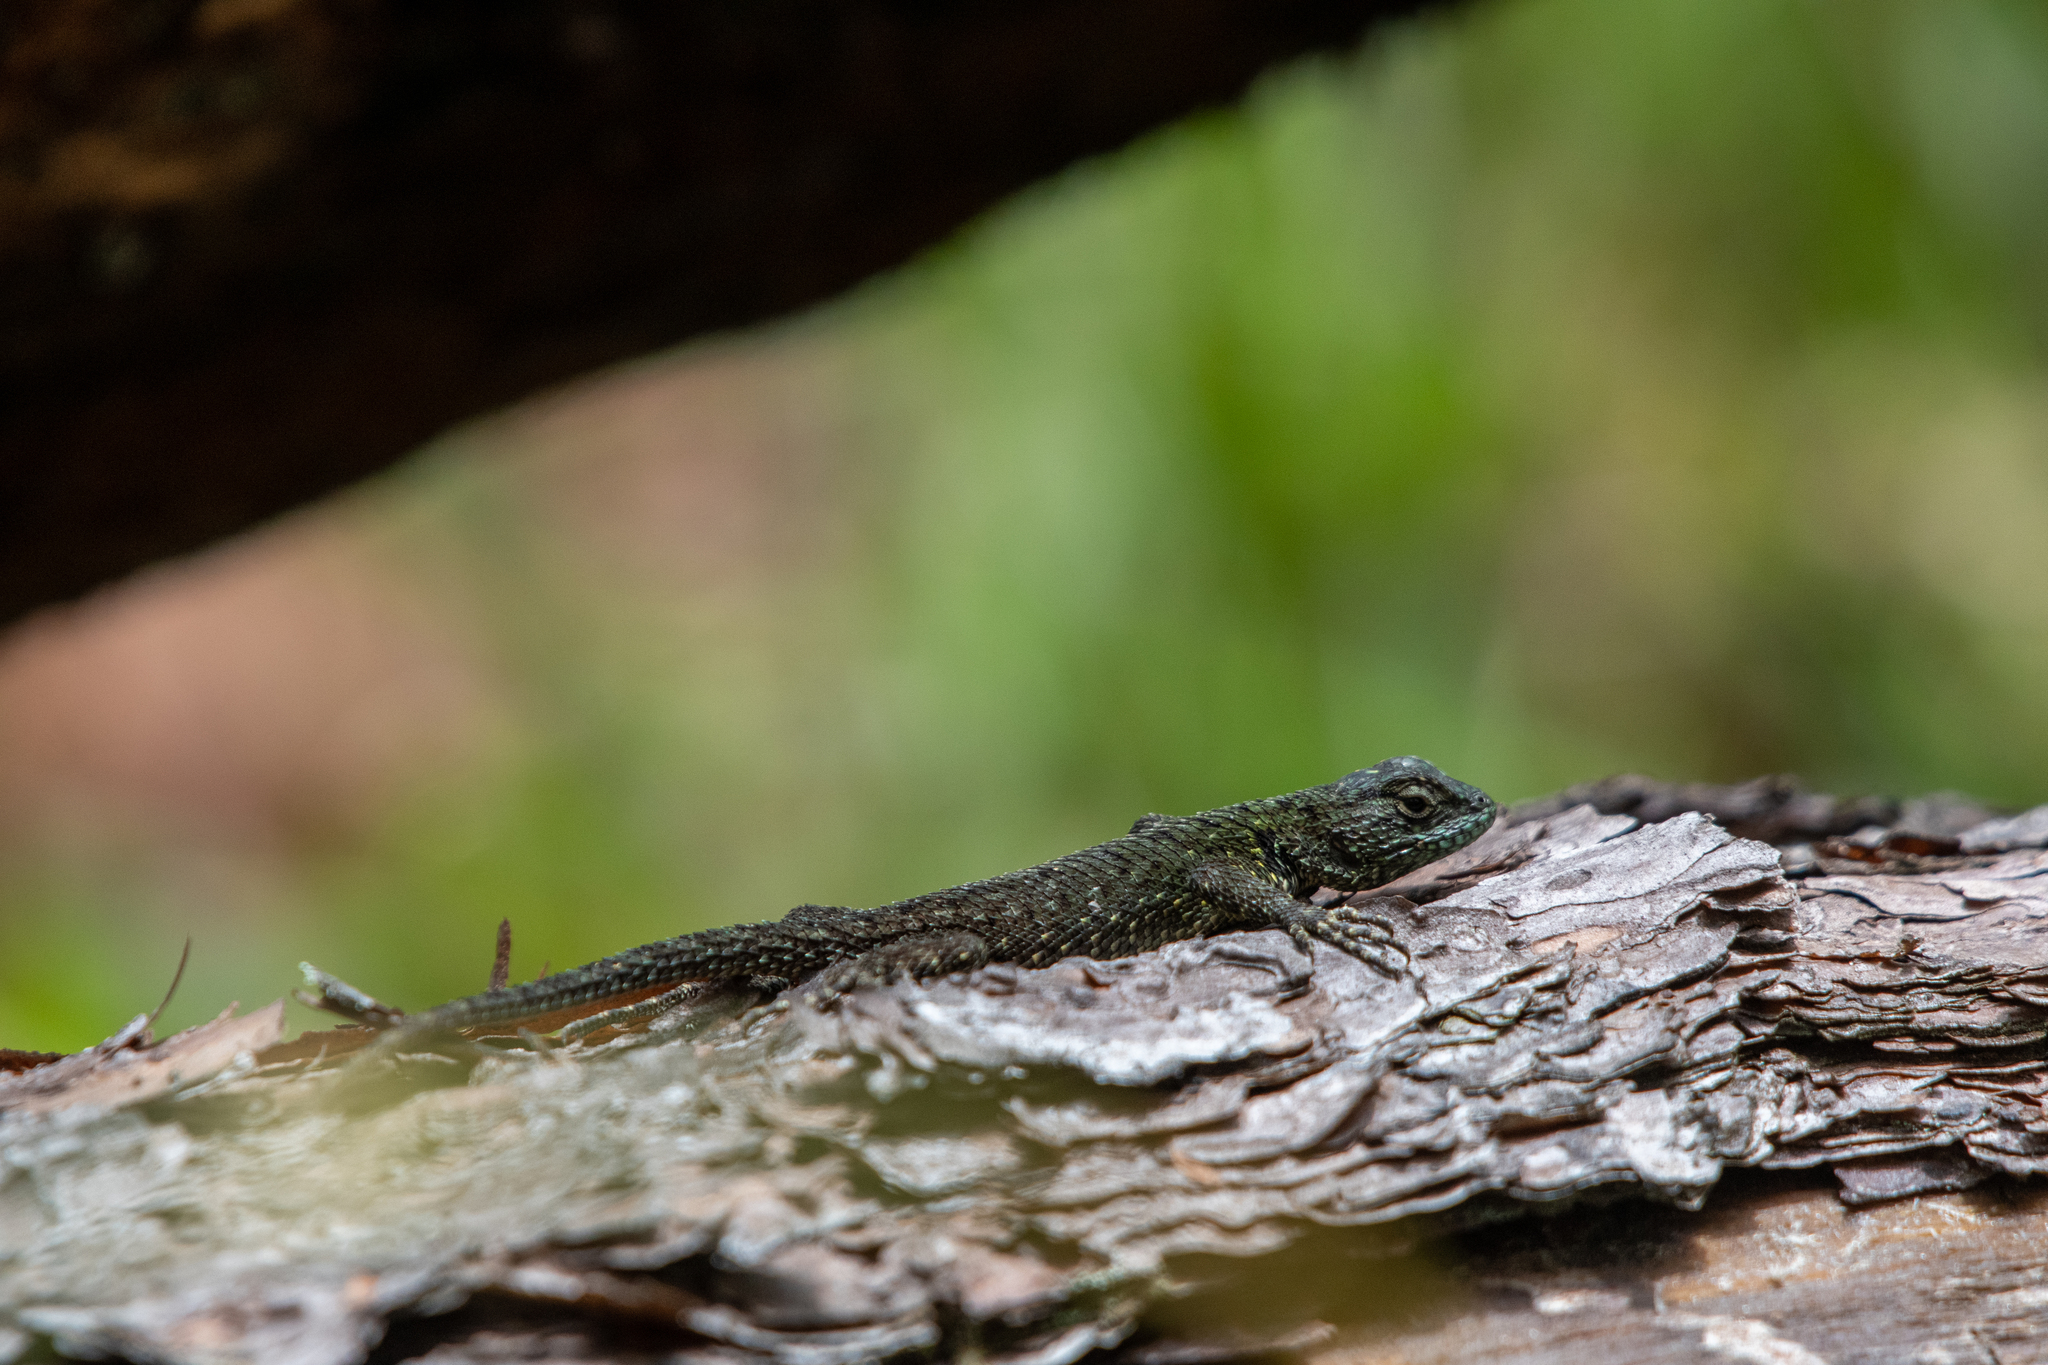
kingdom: Animalia
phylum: Chordata
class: Squamata
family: Phrynosomatidae
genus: Sceloporus
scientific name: Sceloporus esperanzae
